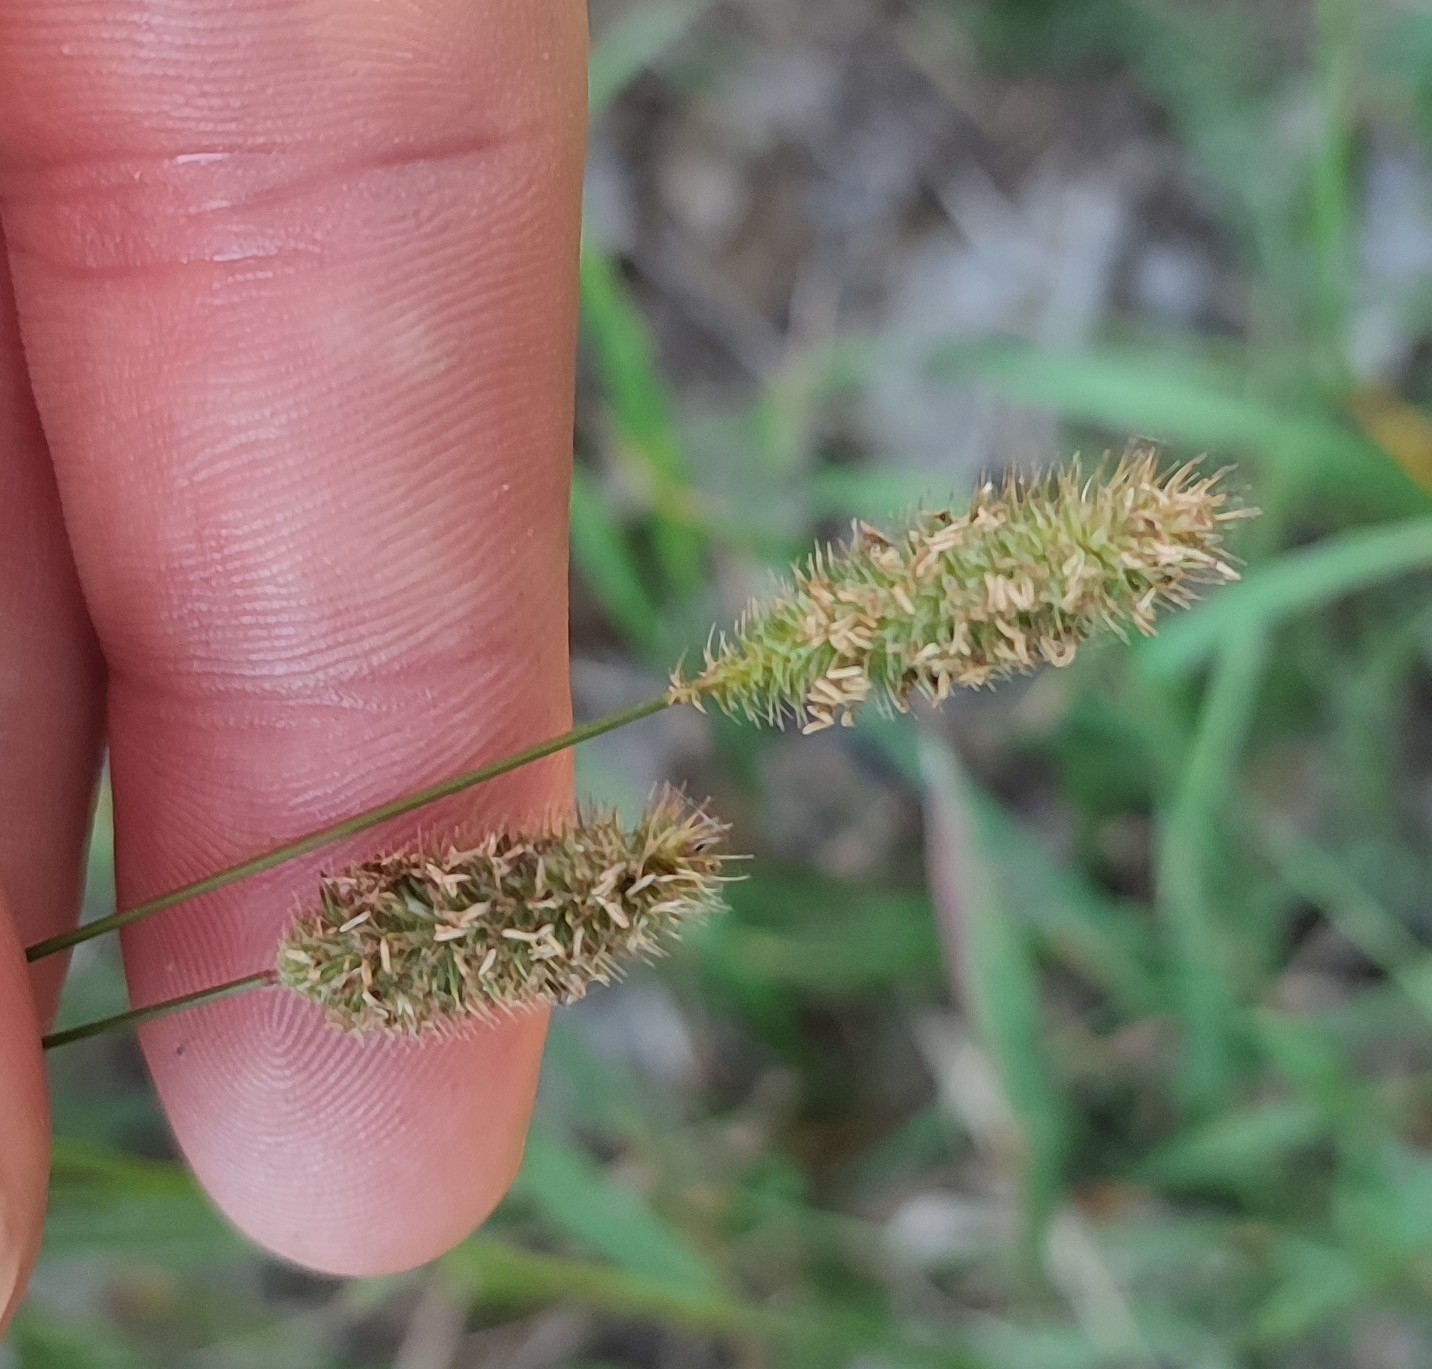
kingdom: Plantae
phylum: Tracheophyta
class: Liliopsida
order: Poales
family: Poaceae
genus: Phleum
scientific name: Phleum pratense
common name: Timothy grass
